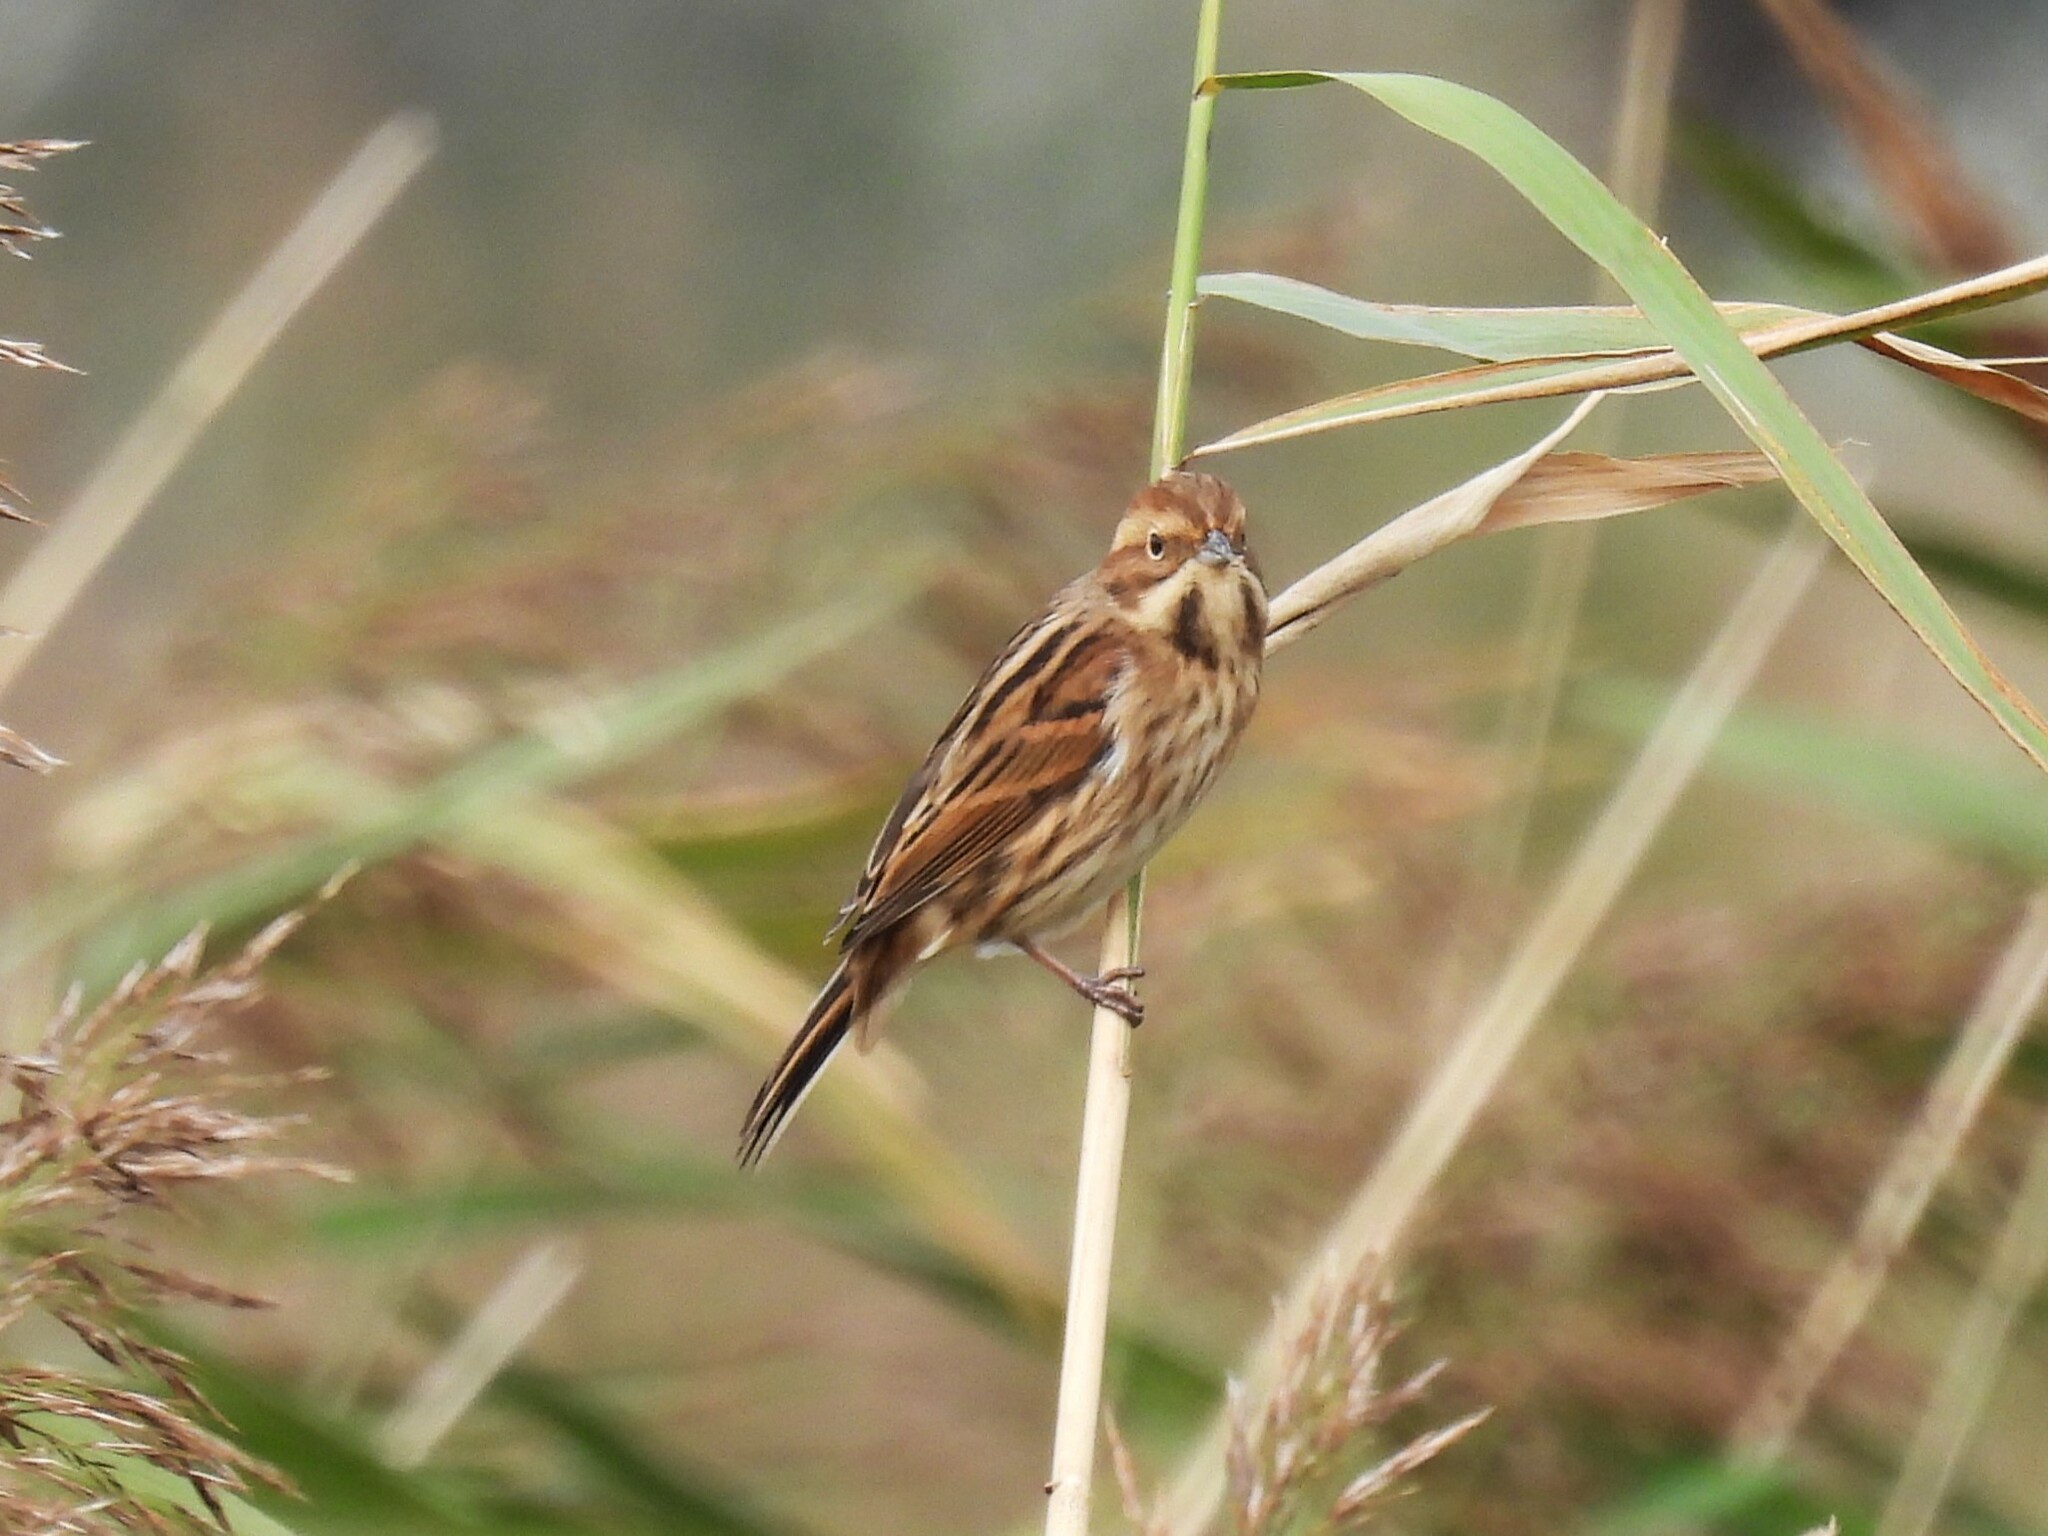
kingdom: Animalia
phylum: Chordata
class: Aves
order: Passeriformes
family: Emberizidae
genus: Emberiza
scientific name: Emberiza schoeniclus
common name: Reed bunting
